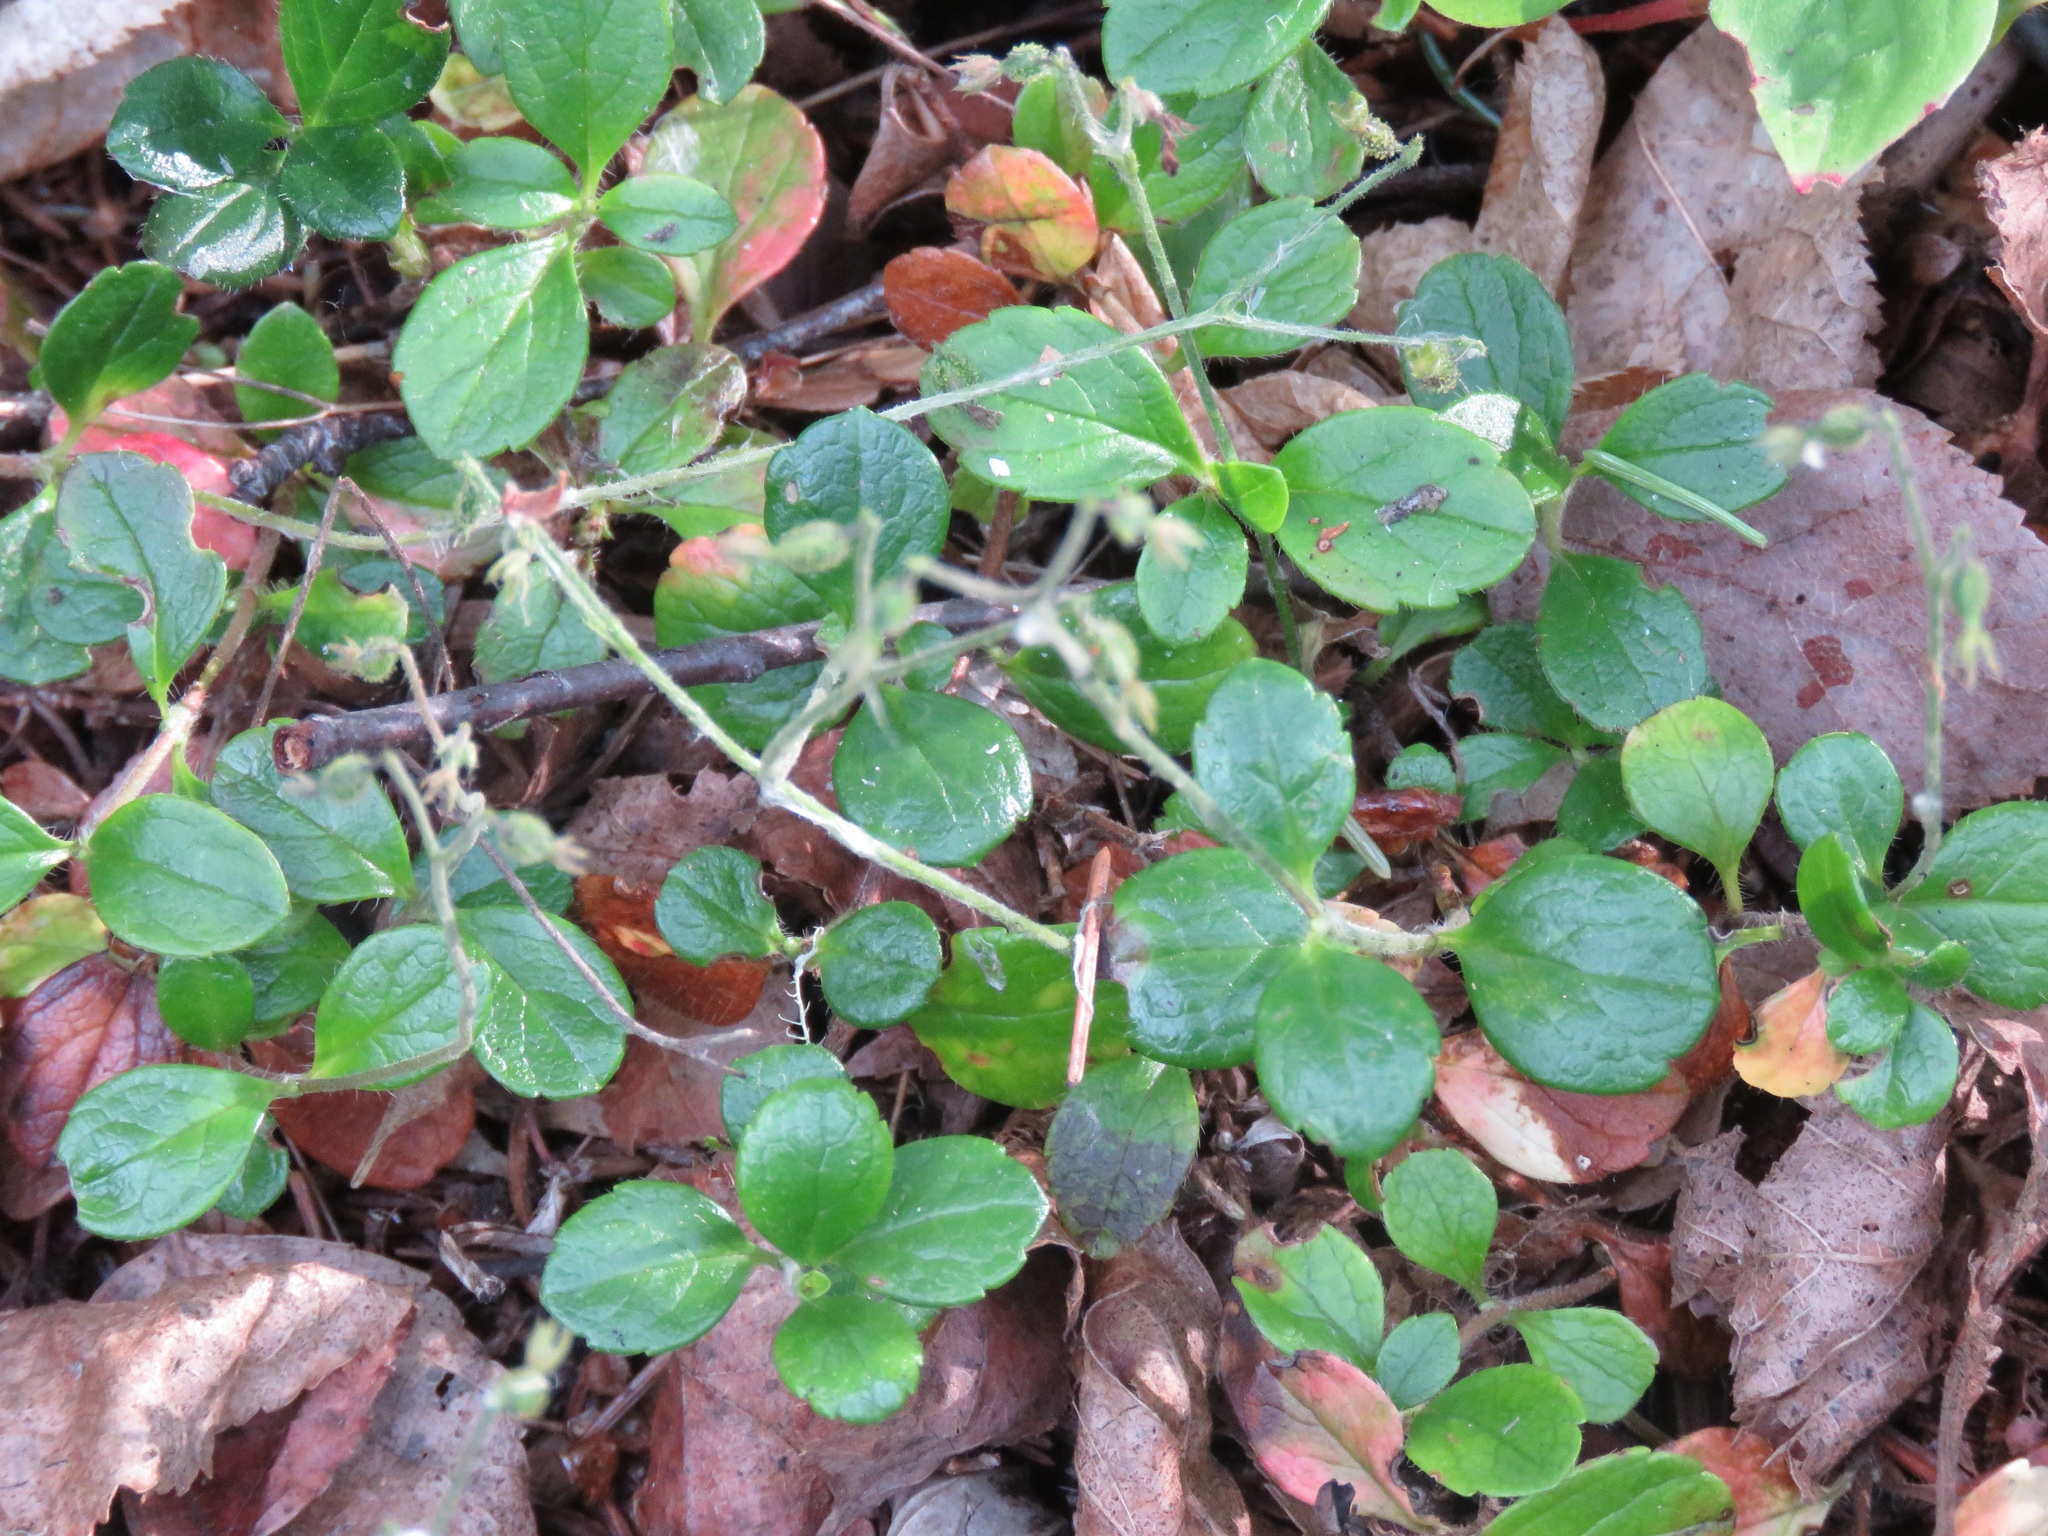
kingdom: Plantae
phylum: Tracheophyta
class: Magnoliopsida
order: Dipsacales
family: Caprifoliaceae
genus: Linnaea
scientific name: Linnaea borealis
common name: Twinflower
